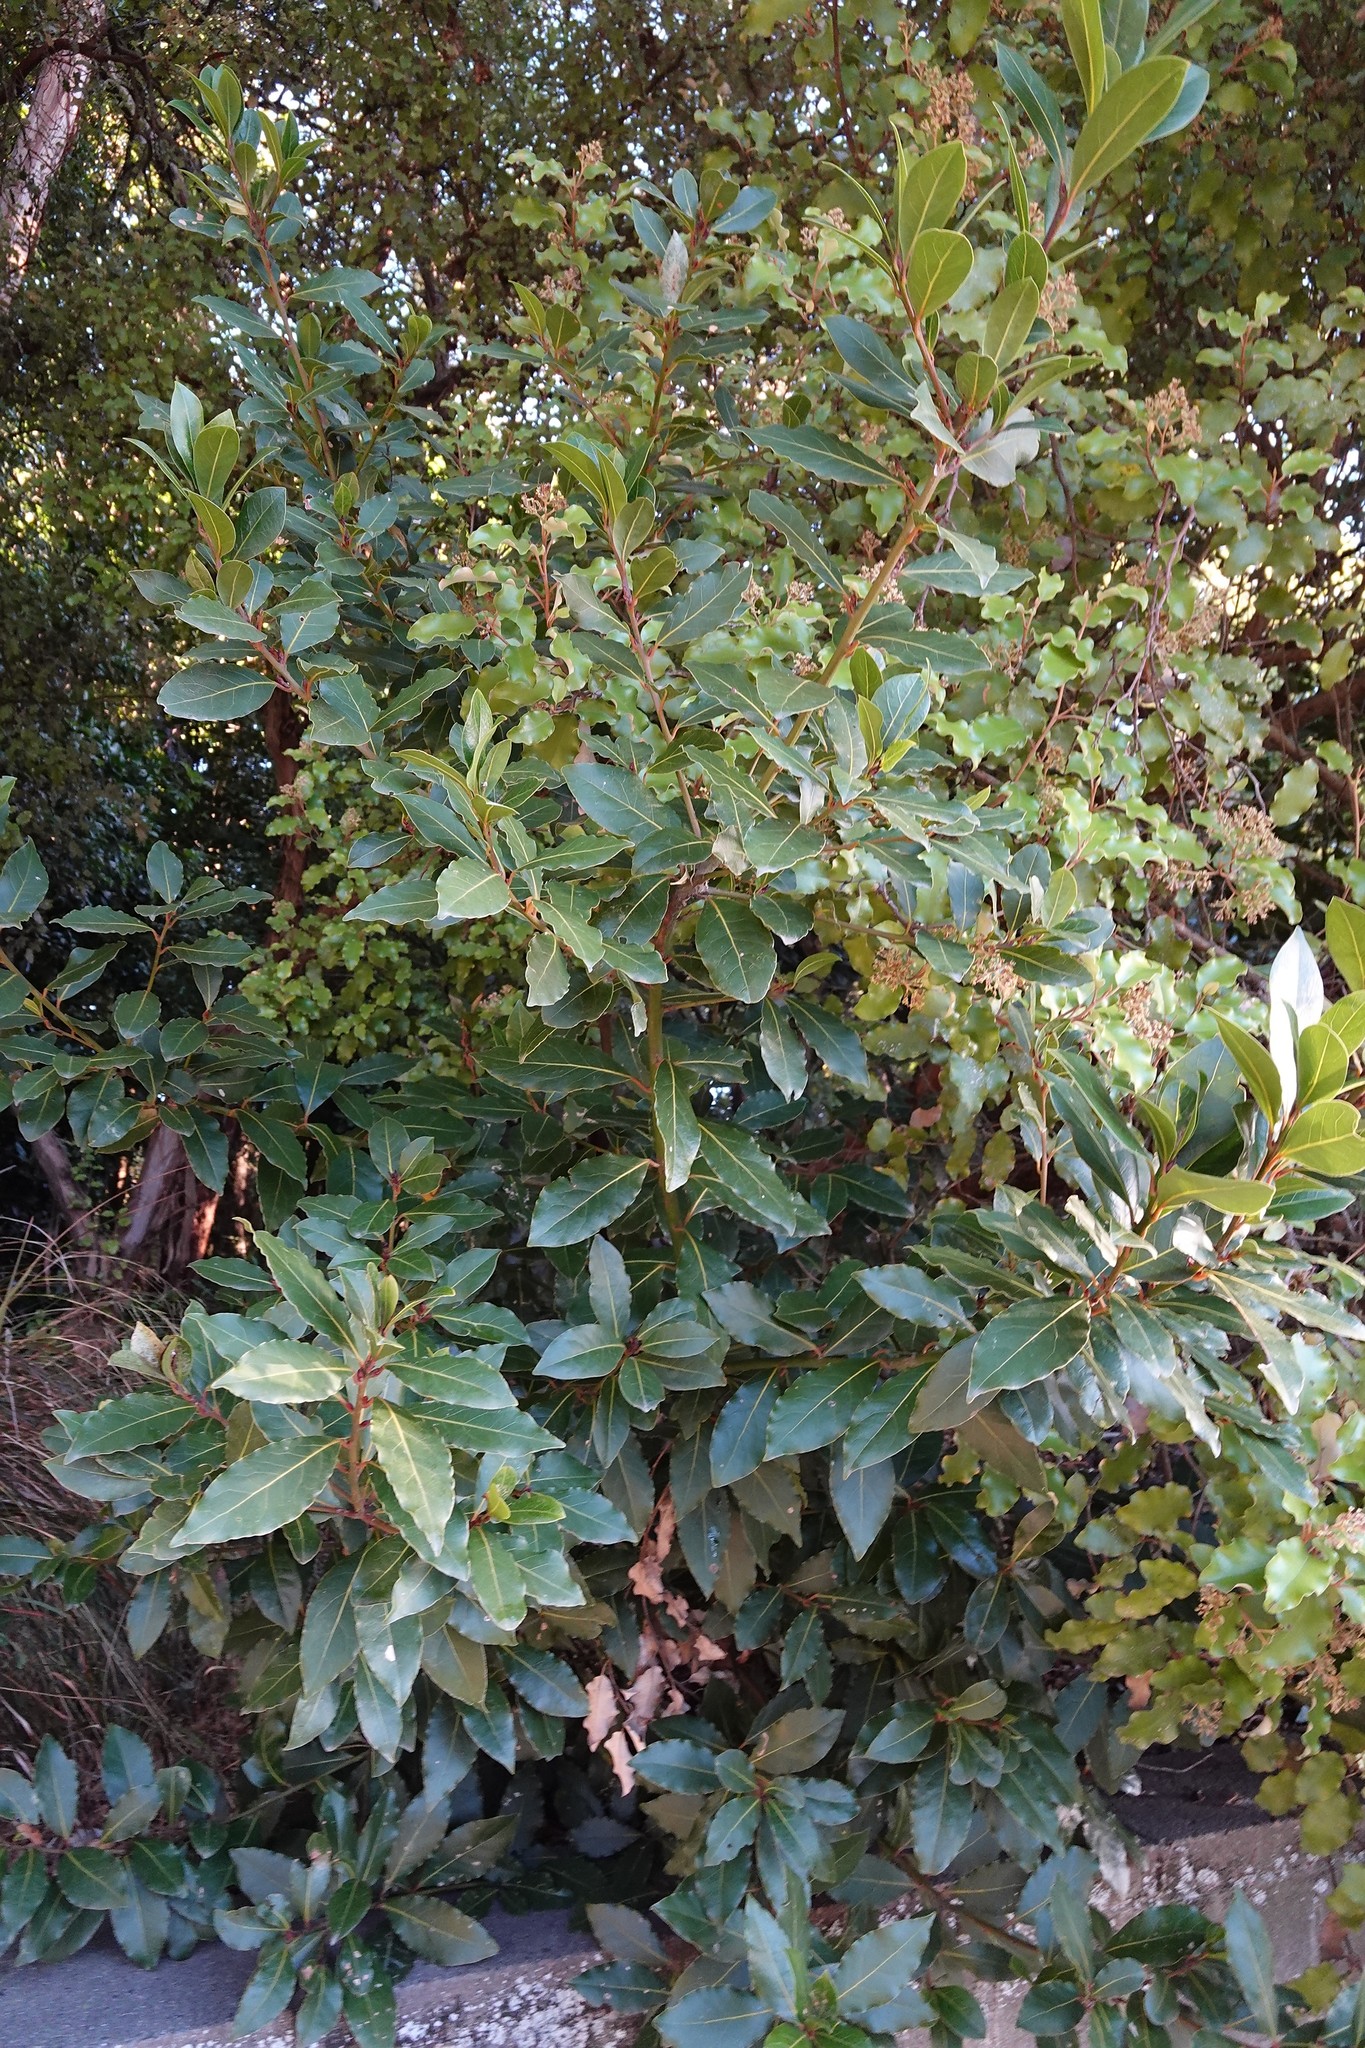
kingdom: Plantae
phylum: Tracheophyta
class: Magnoliopsida
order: Laurales
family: Lauraceae
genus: Laurus
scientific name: Laurus nobilis
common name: Bay
